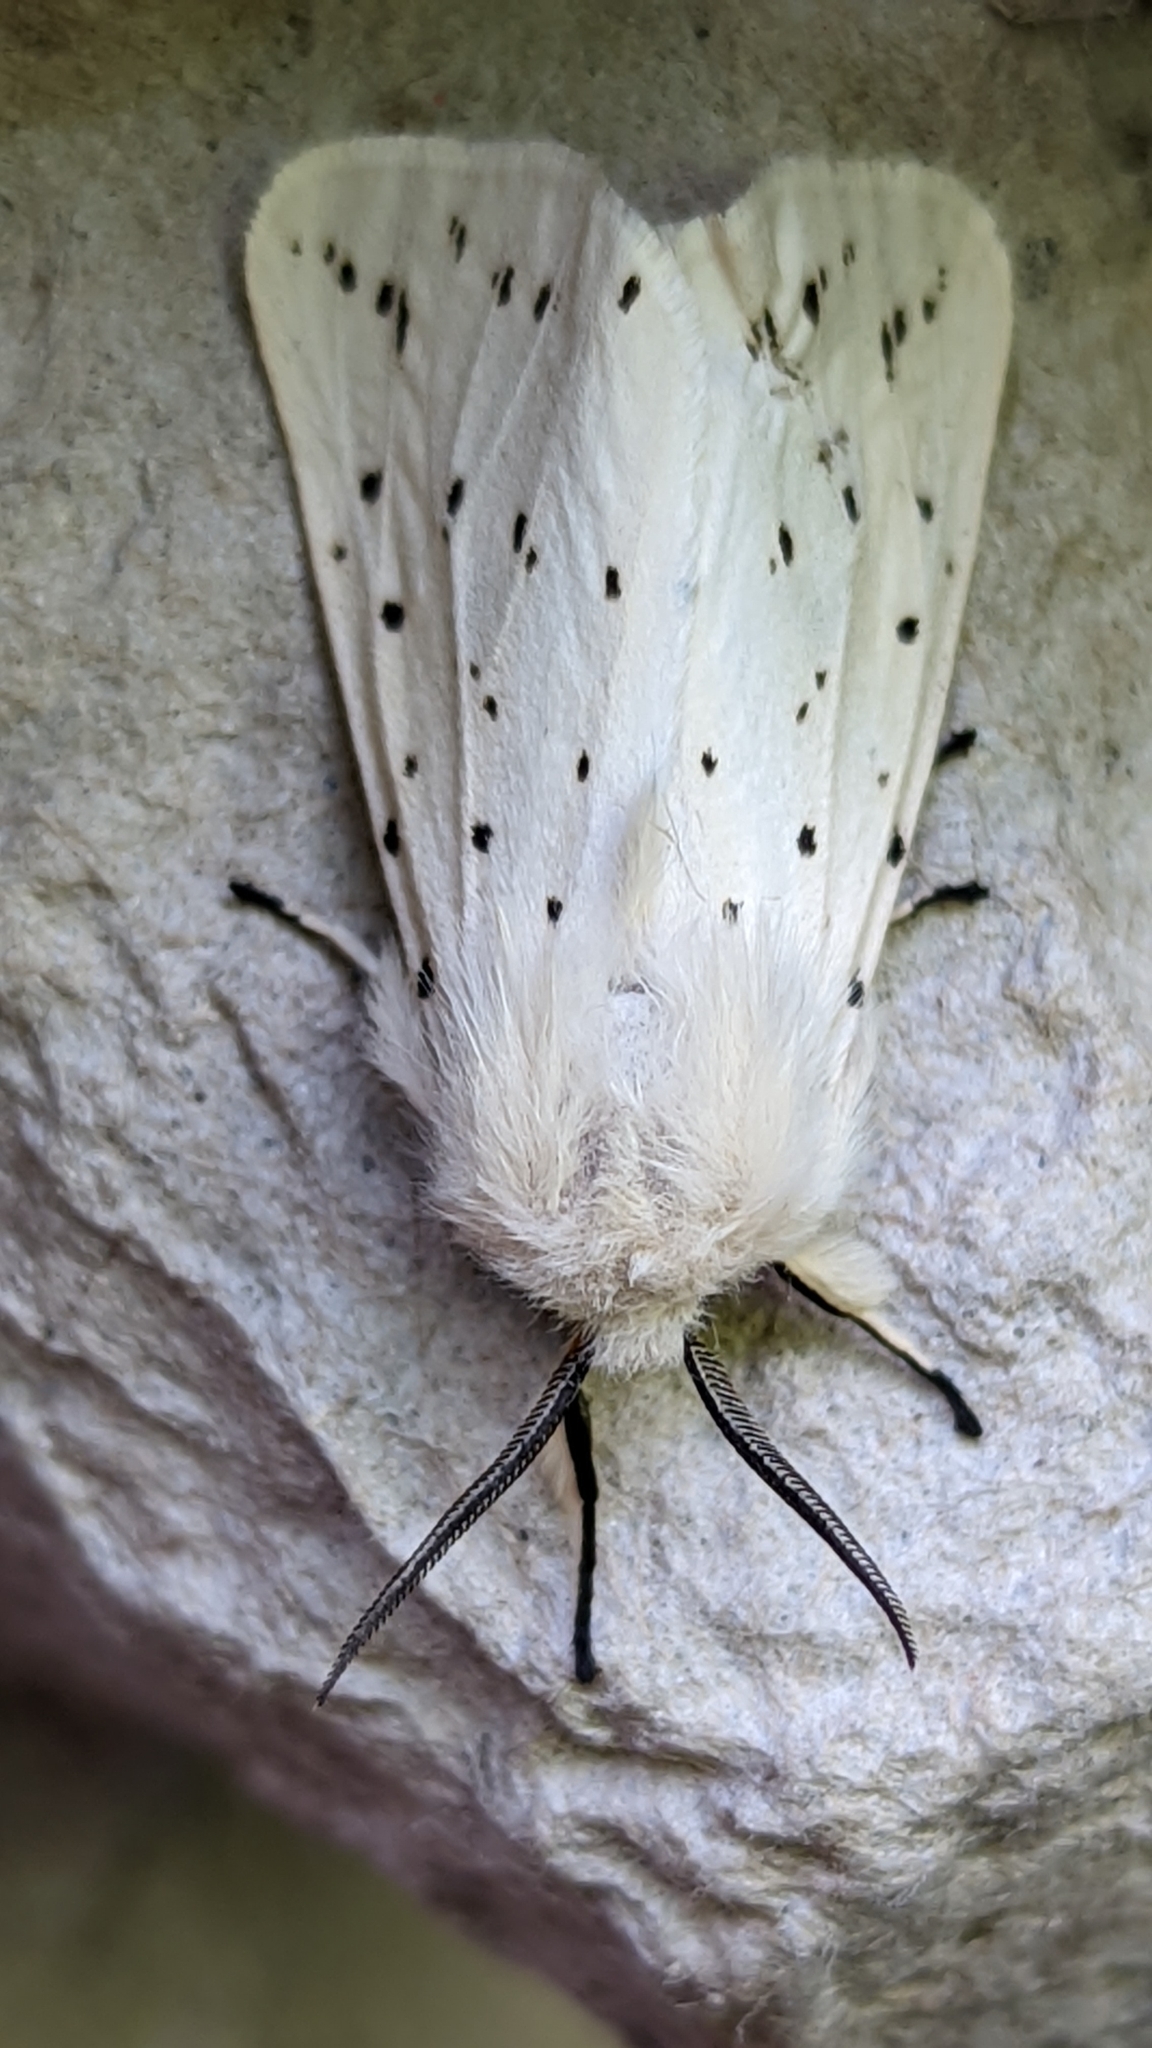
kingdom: Animalia
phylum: Arthropoda
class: Insecta
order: Lepidoptera
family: Erebidae
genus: Spilosoma
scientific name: Spilosoma lubricipeda
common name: White ermine
